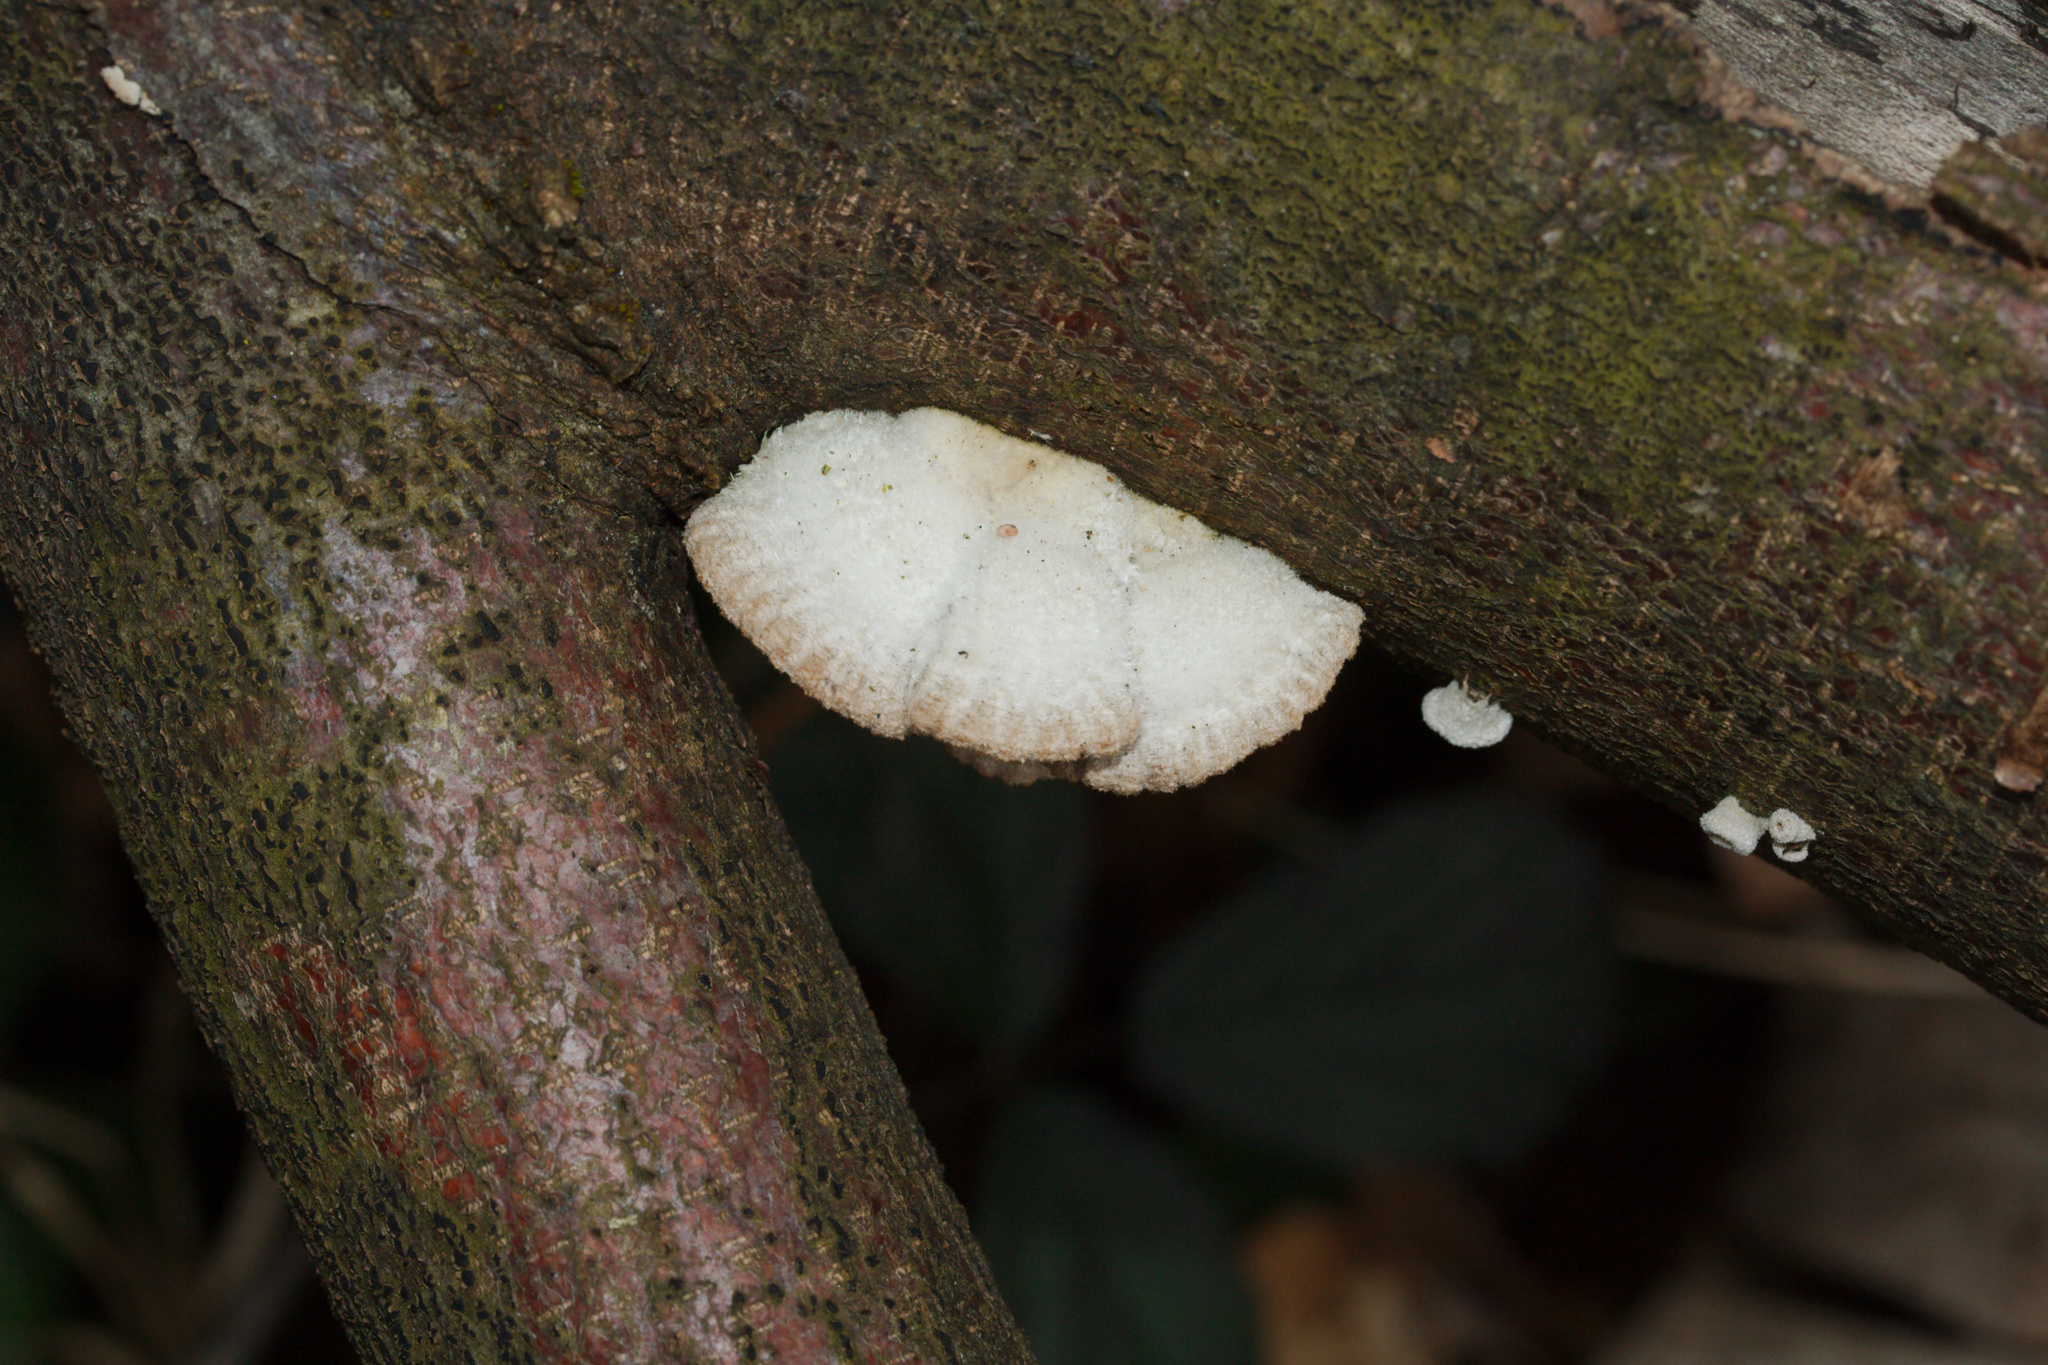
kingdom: Fungi
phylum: Basidiomycota
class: Agaricomycetes
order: Agaricales
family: Schizophyllaceae
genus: Schizophyllum
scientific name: Schizophyllum commune
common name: Common porecrust
